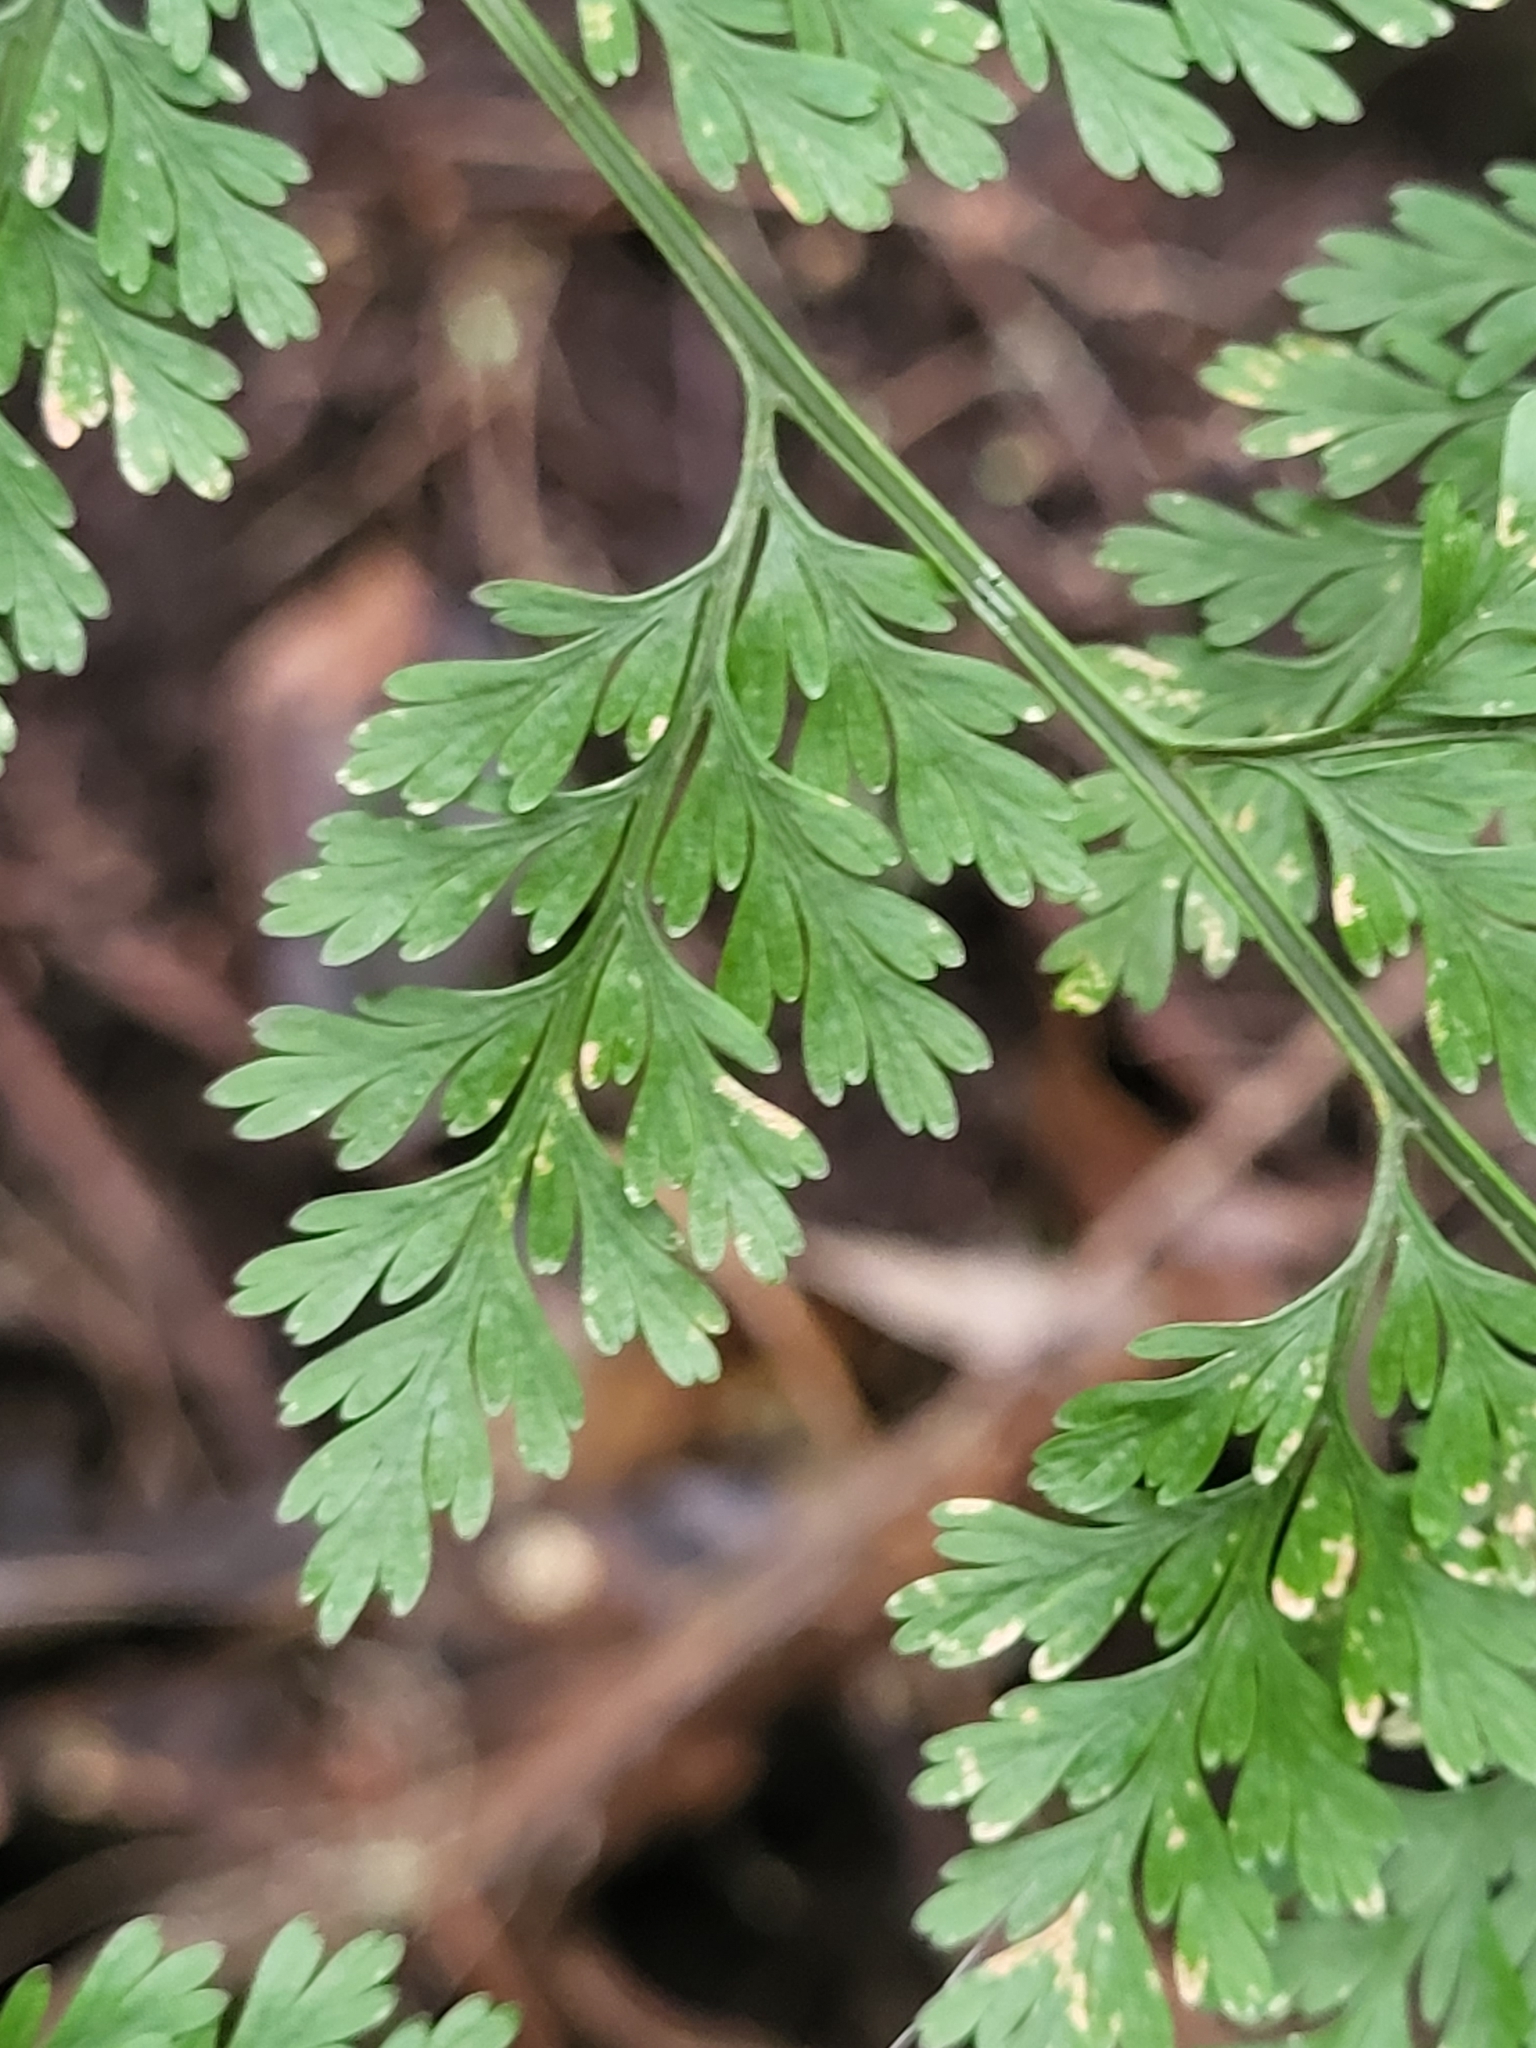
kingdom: Plantae
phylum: Tracheophyta
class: Polypodiopsida
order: Polypodiales
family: Davalliaceae
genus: Davallia
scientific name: Davallia canariensis
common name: Hare's-foot fern
